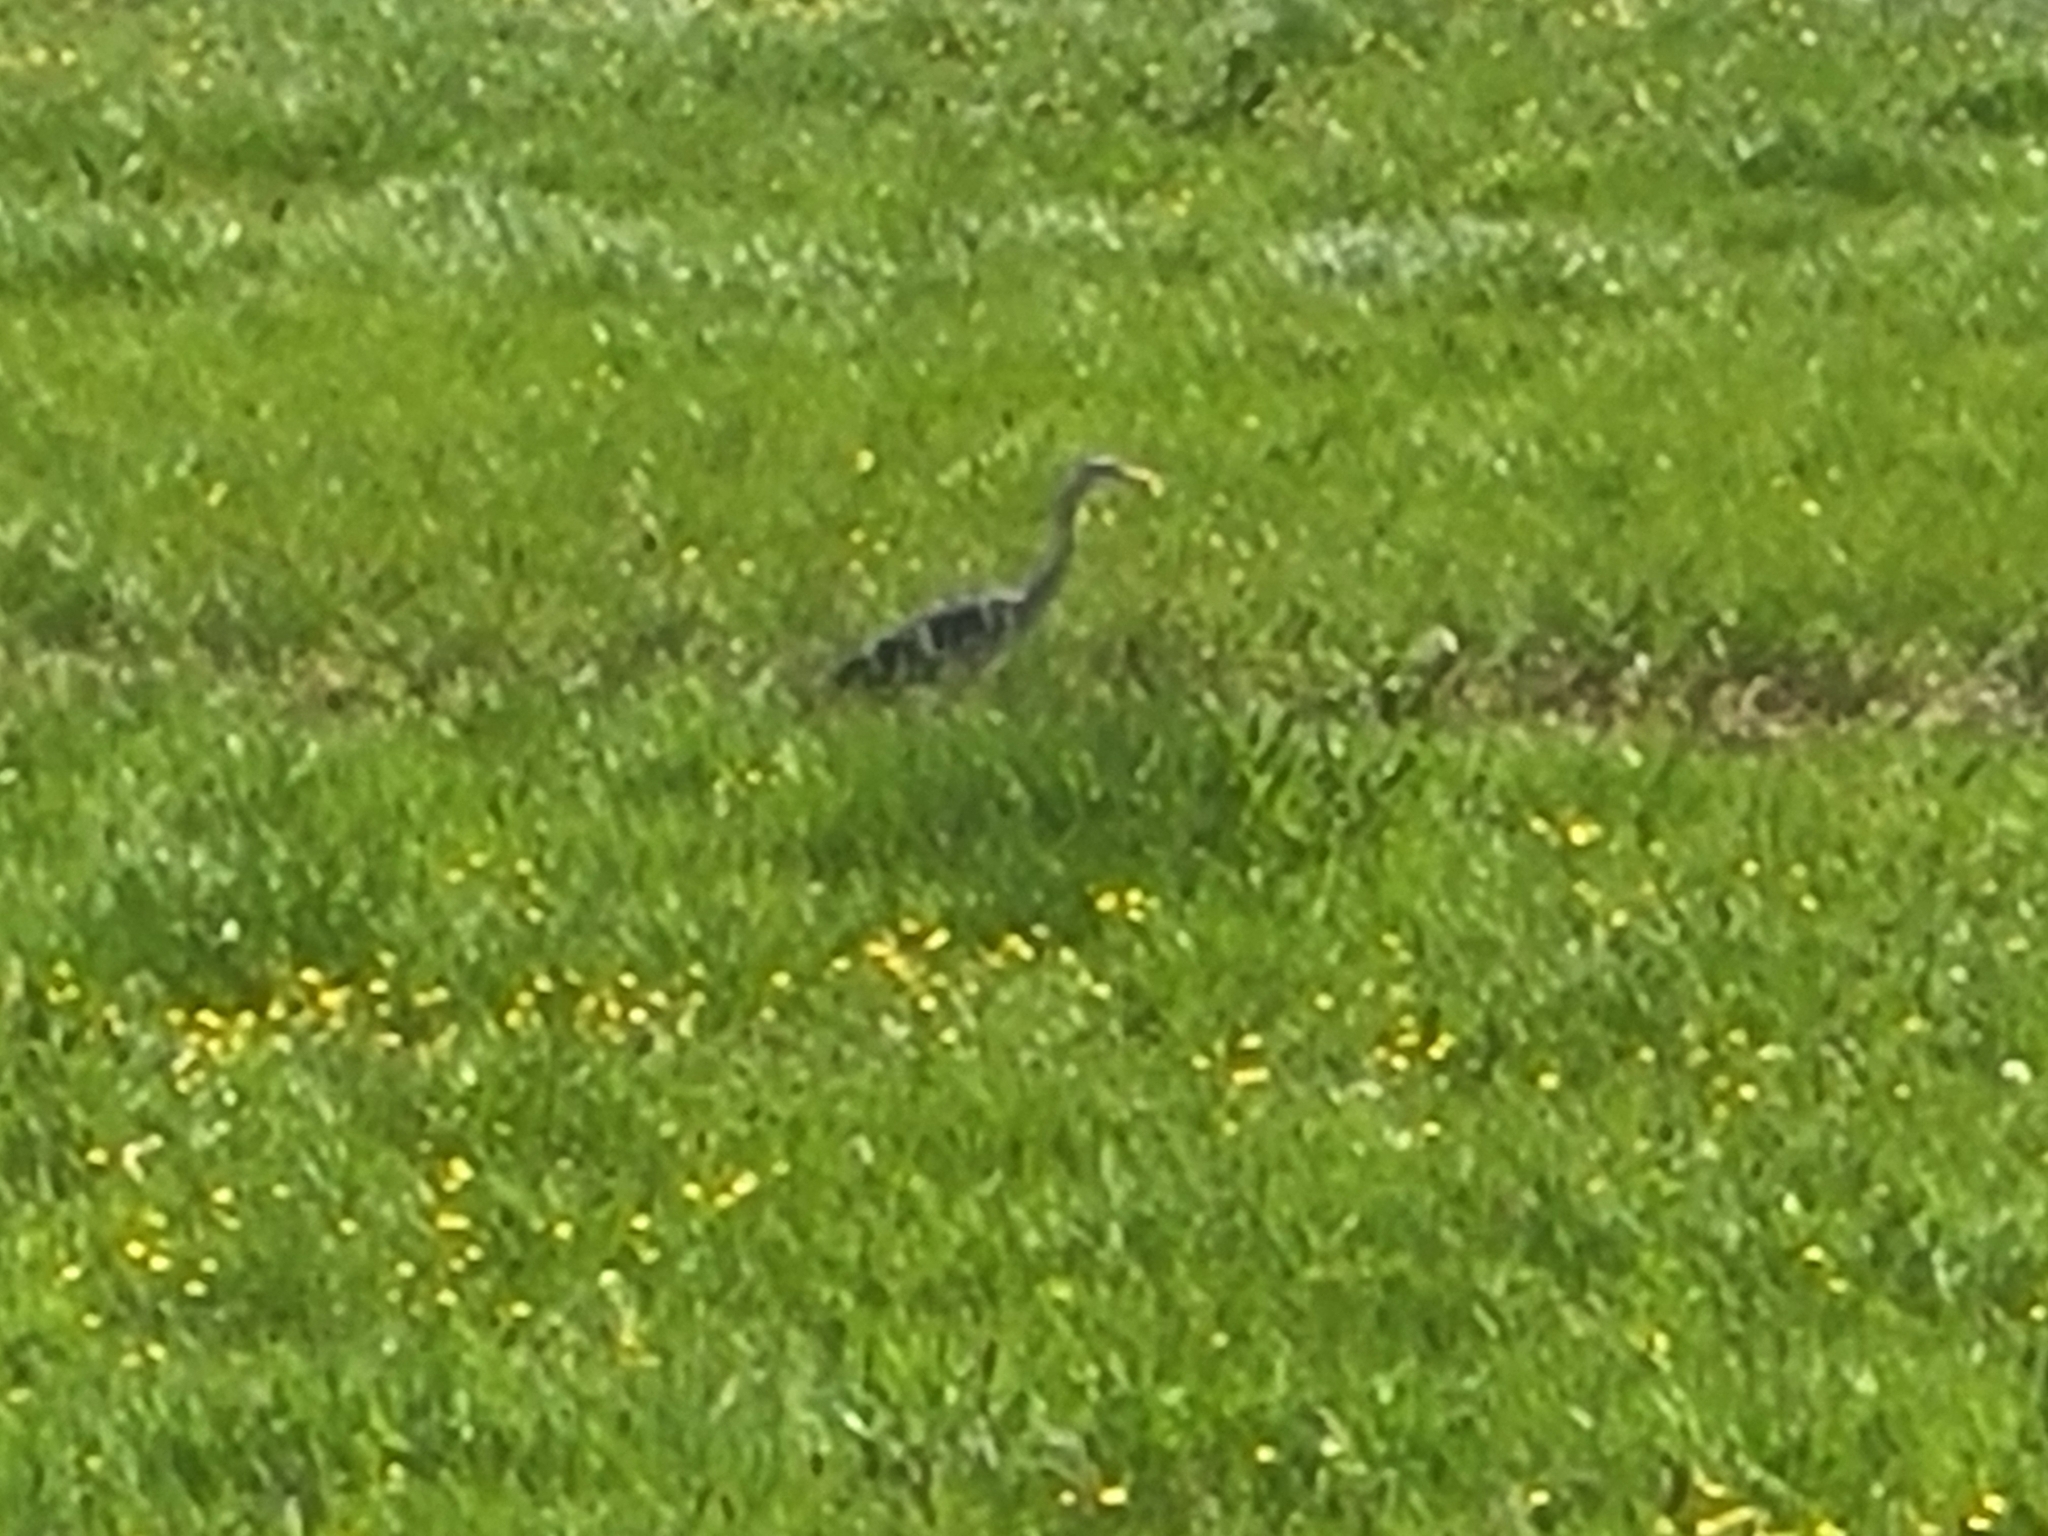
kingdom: Animalia
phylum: Chordata
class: Aves
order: Pelecaniformes
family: Ardeidae
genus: Ardea
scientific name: Ardea cinerea
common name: Grey heron
